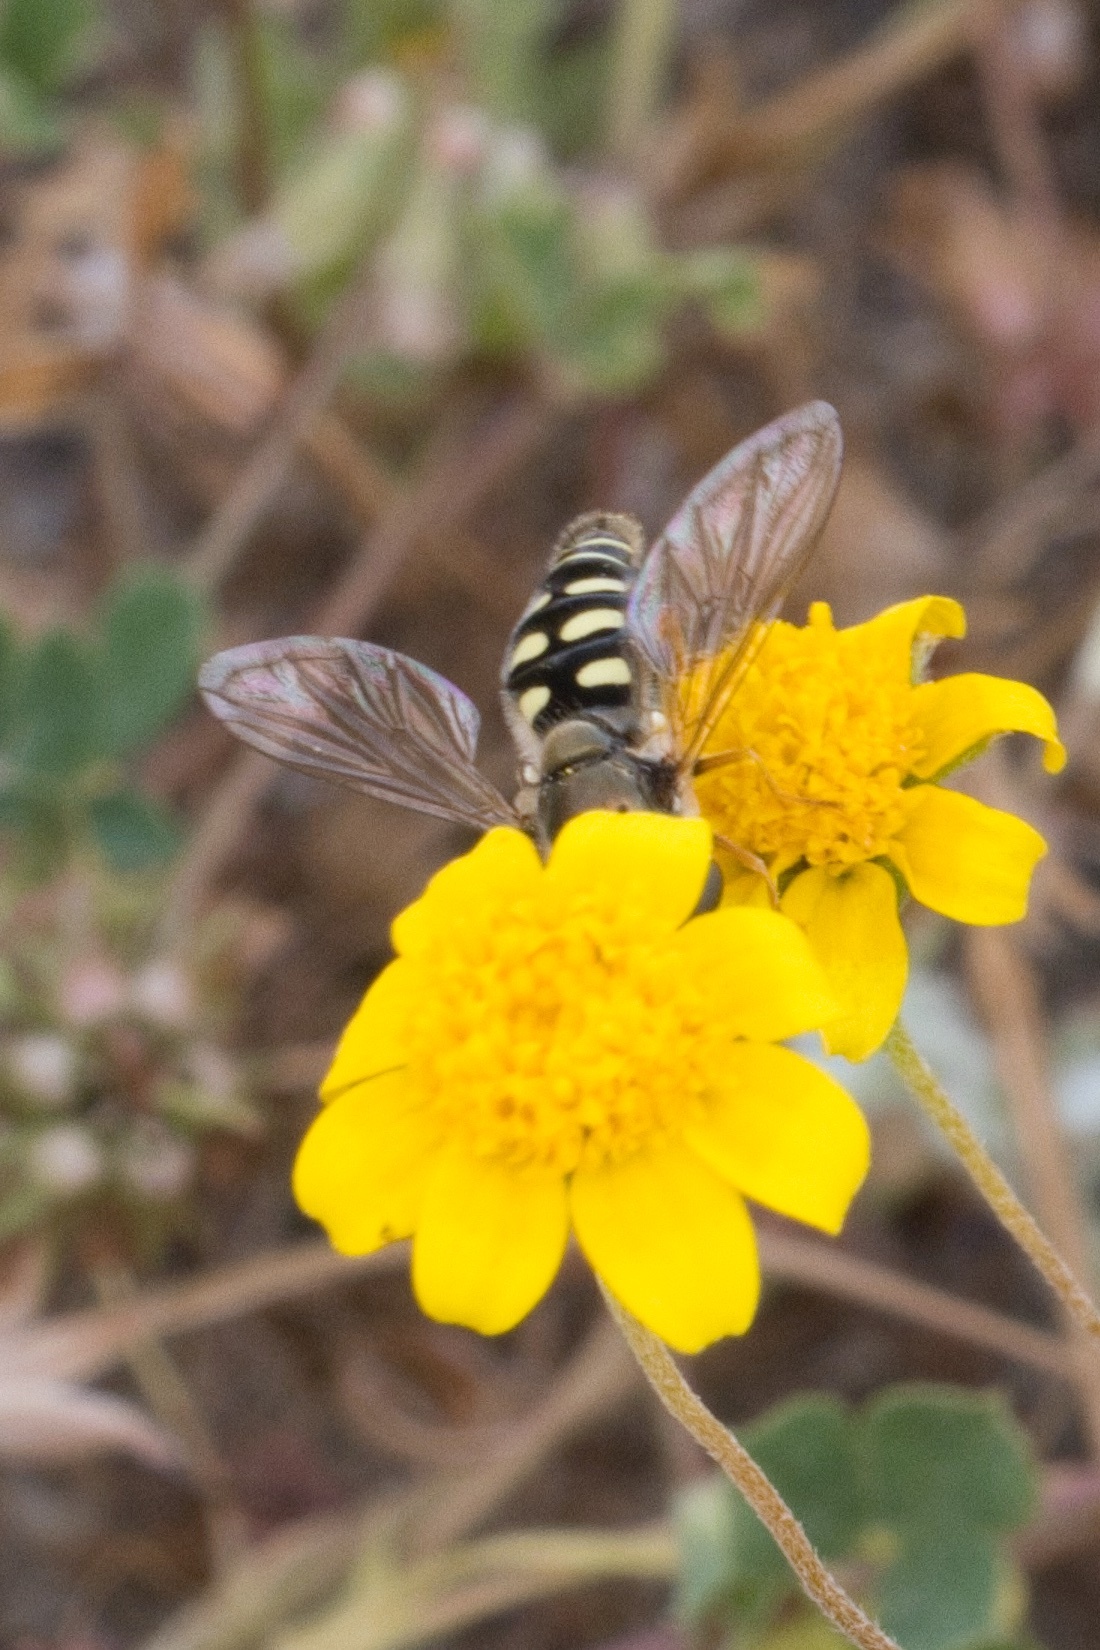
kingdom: Animalia
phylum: Arthropoda
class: Insecta
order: Diptera
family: Syrphidae
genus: Eupeodes
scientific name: Eupeodes volucris
